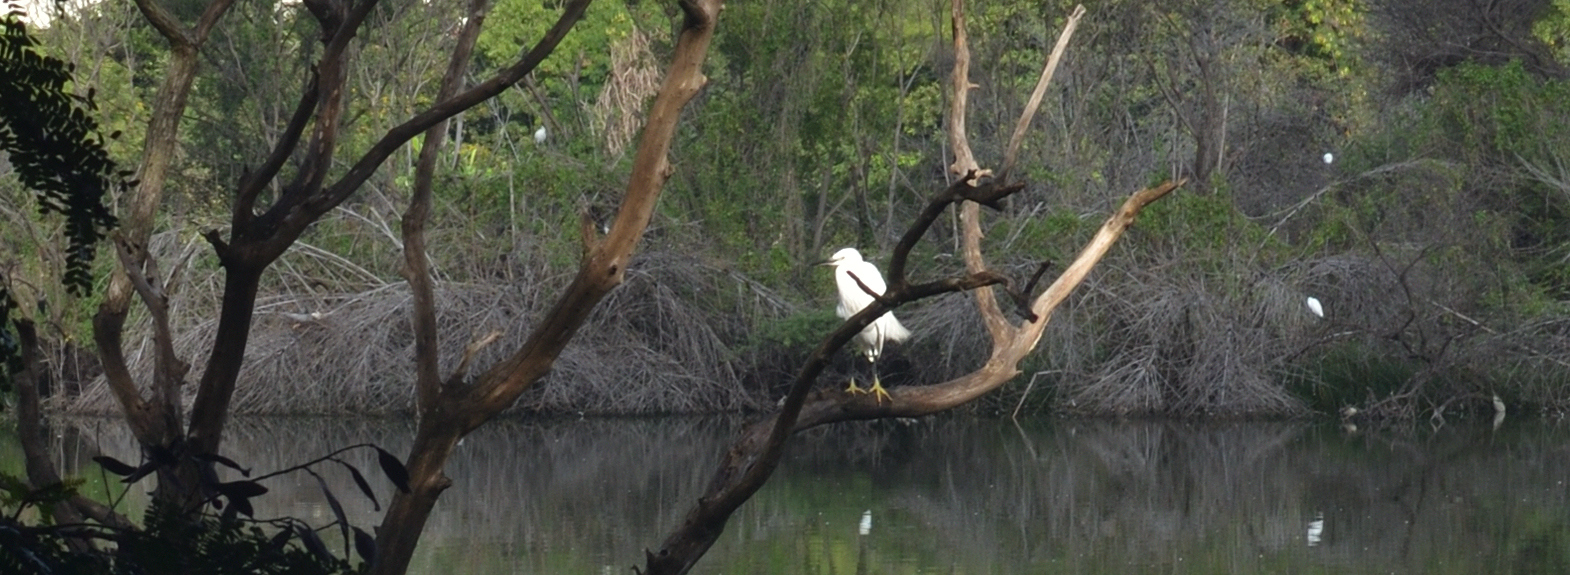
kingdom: Animalia
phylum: Chordata
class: Aves
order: Pelecaniformes
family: Ardeidae
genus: Egretta
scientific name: Egretta garzetta
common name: Little egret
